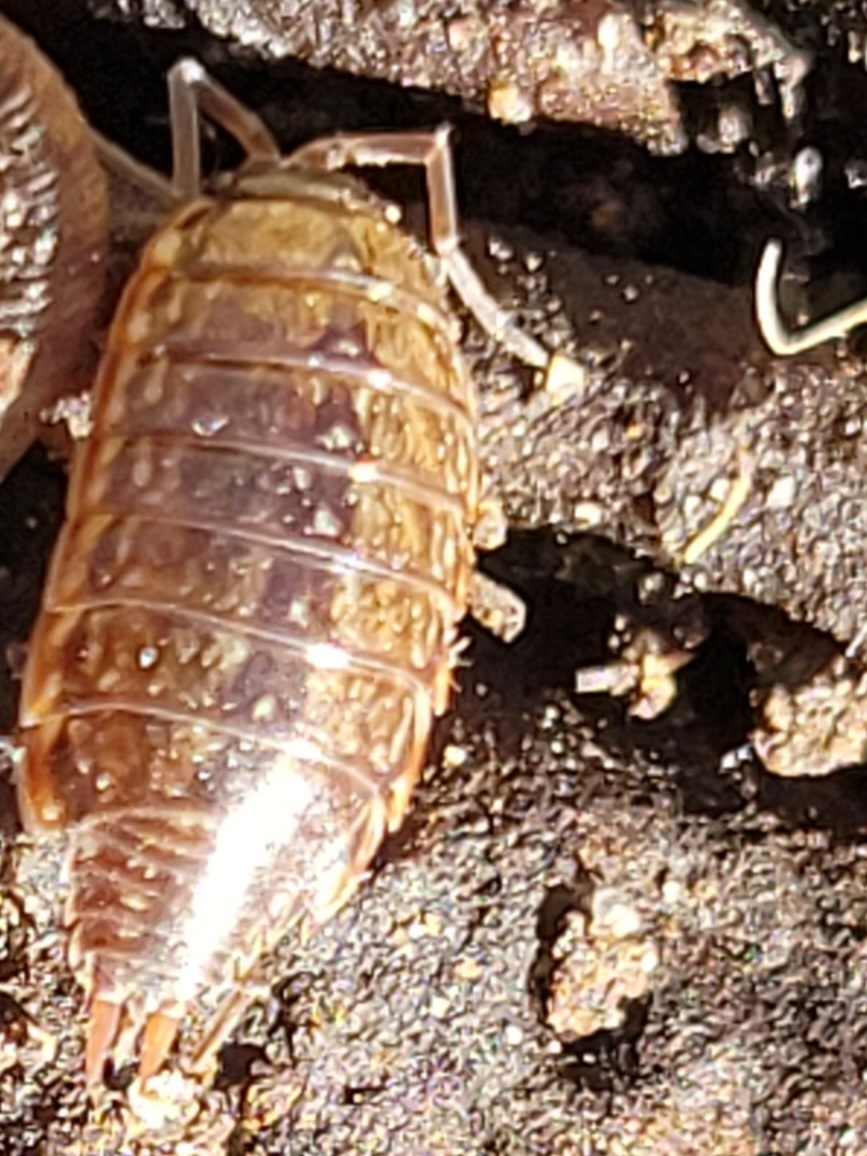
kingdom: Animalia
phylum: Arthropoda
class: Malacostraca
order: Isopoda
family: Philosciidae
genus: Philoscia
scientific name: Philoscia muscorum
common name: Common striped woodlouse
